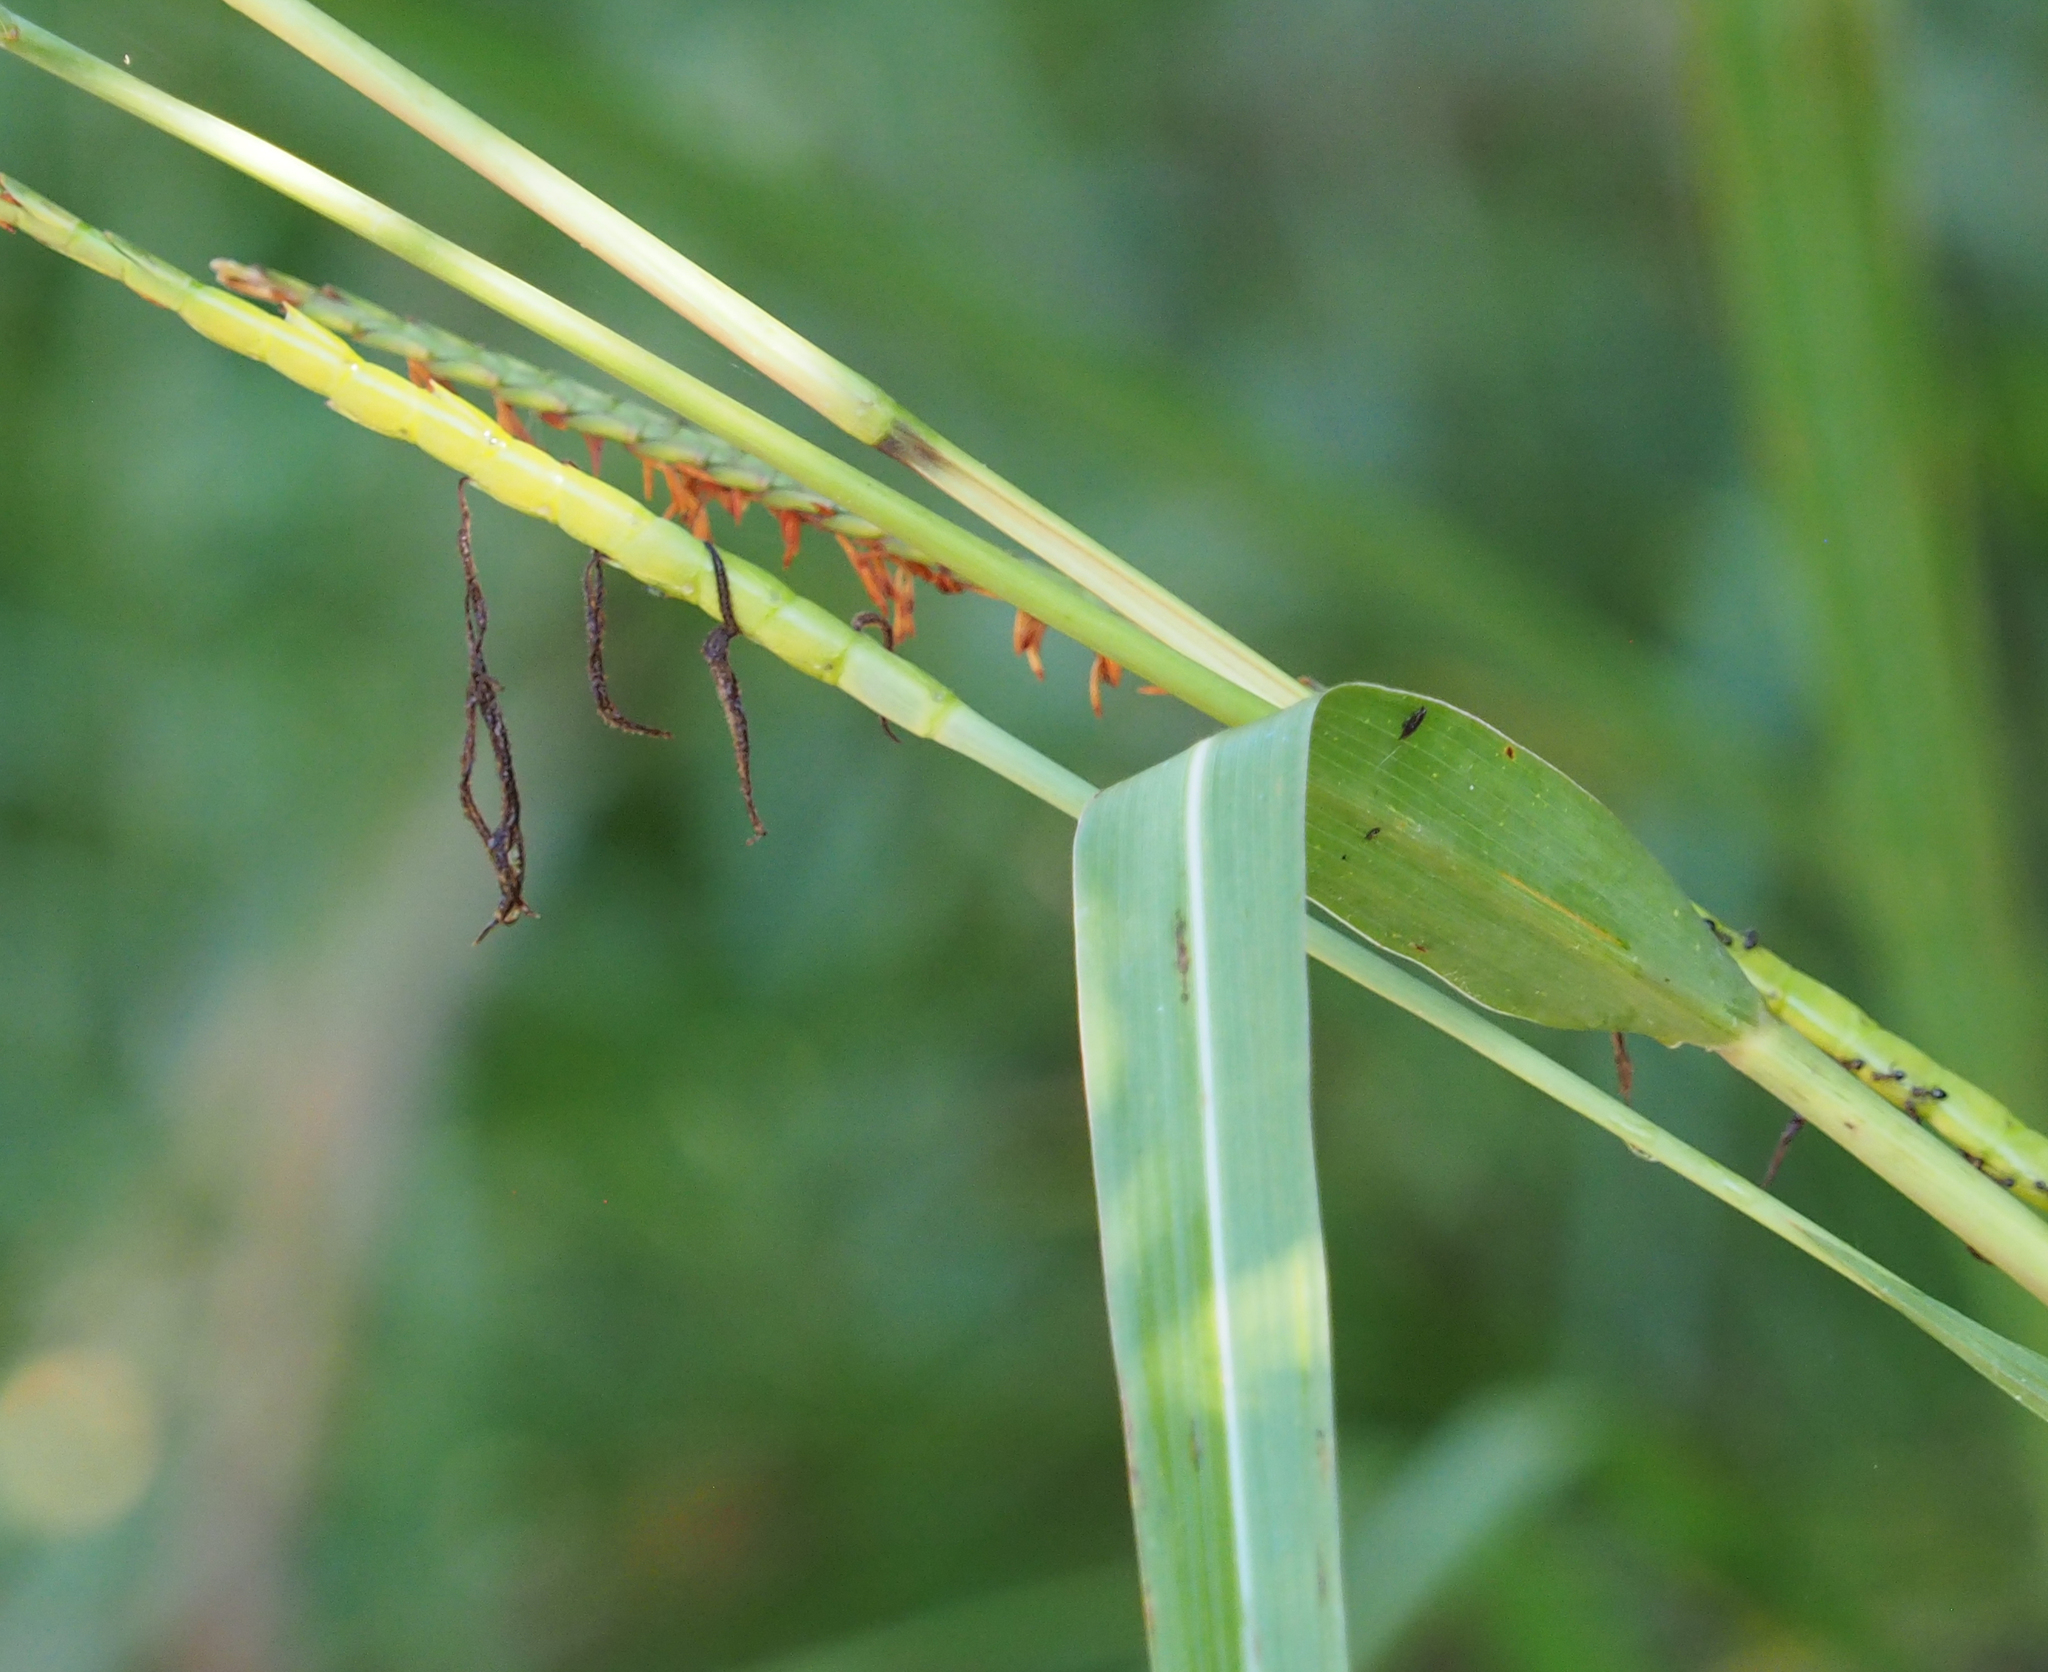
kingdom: Plantae
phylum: Tracheophyta
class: Liliopsida
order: Poales
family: Poaceae
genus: Tripsacum
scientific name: Tripsacum dactyloides
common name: Buffalo-grass
